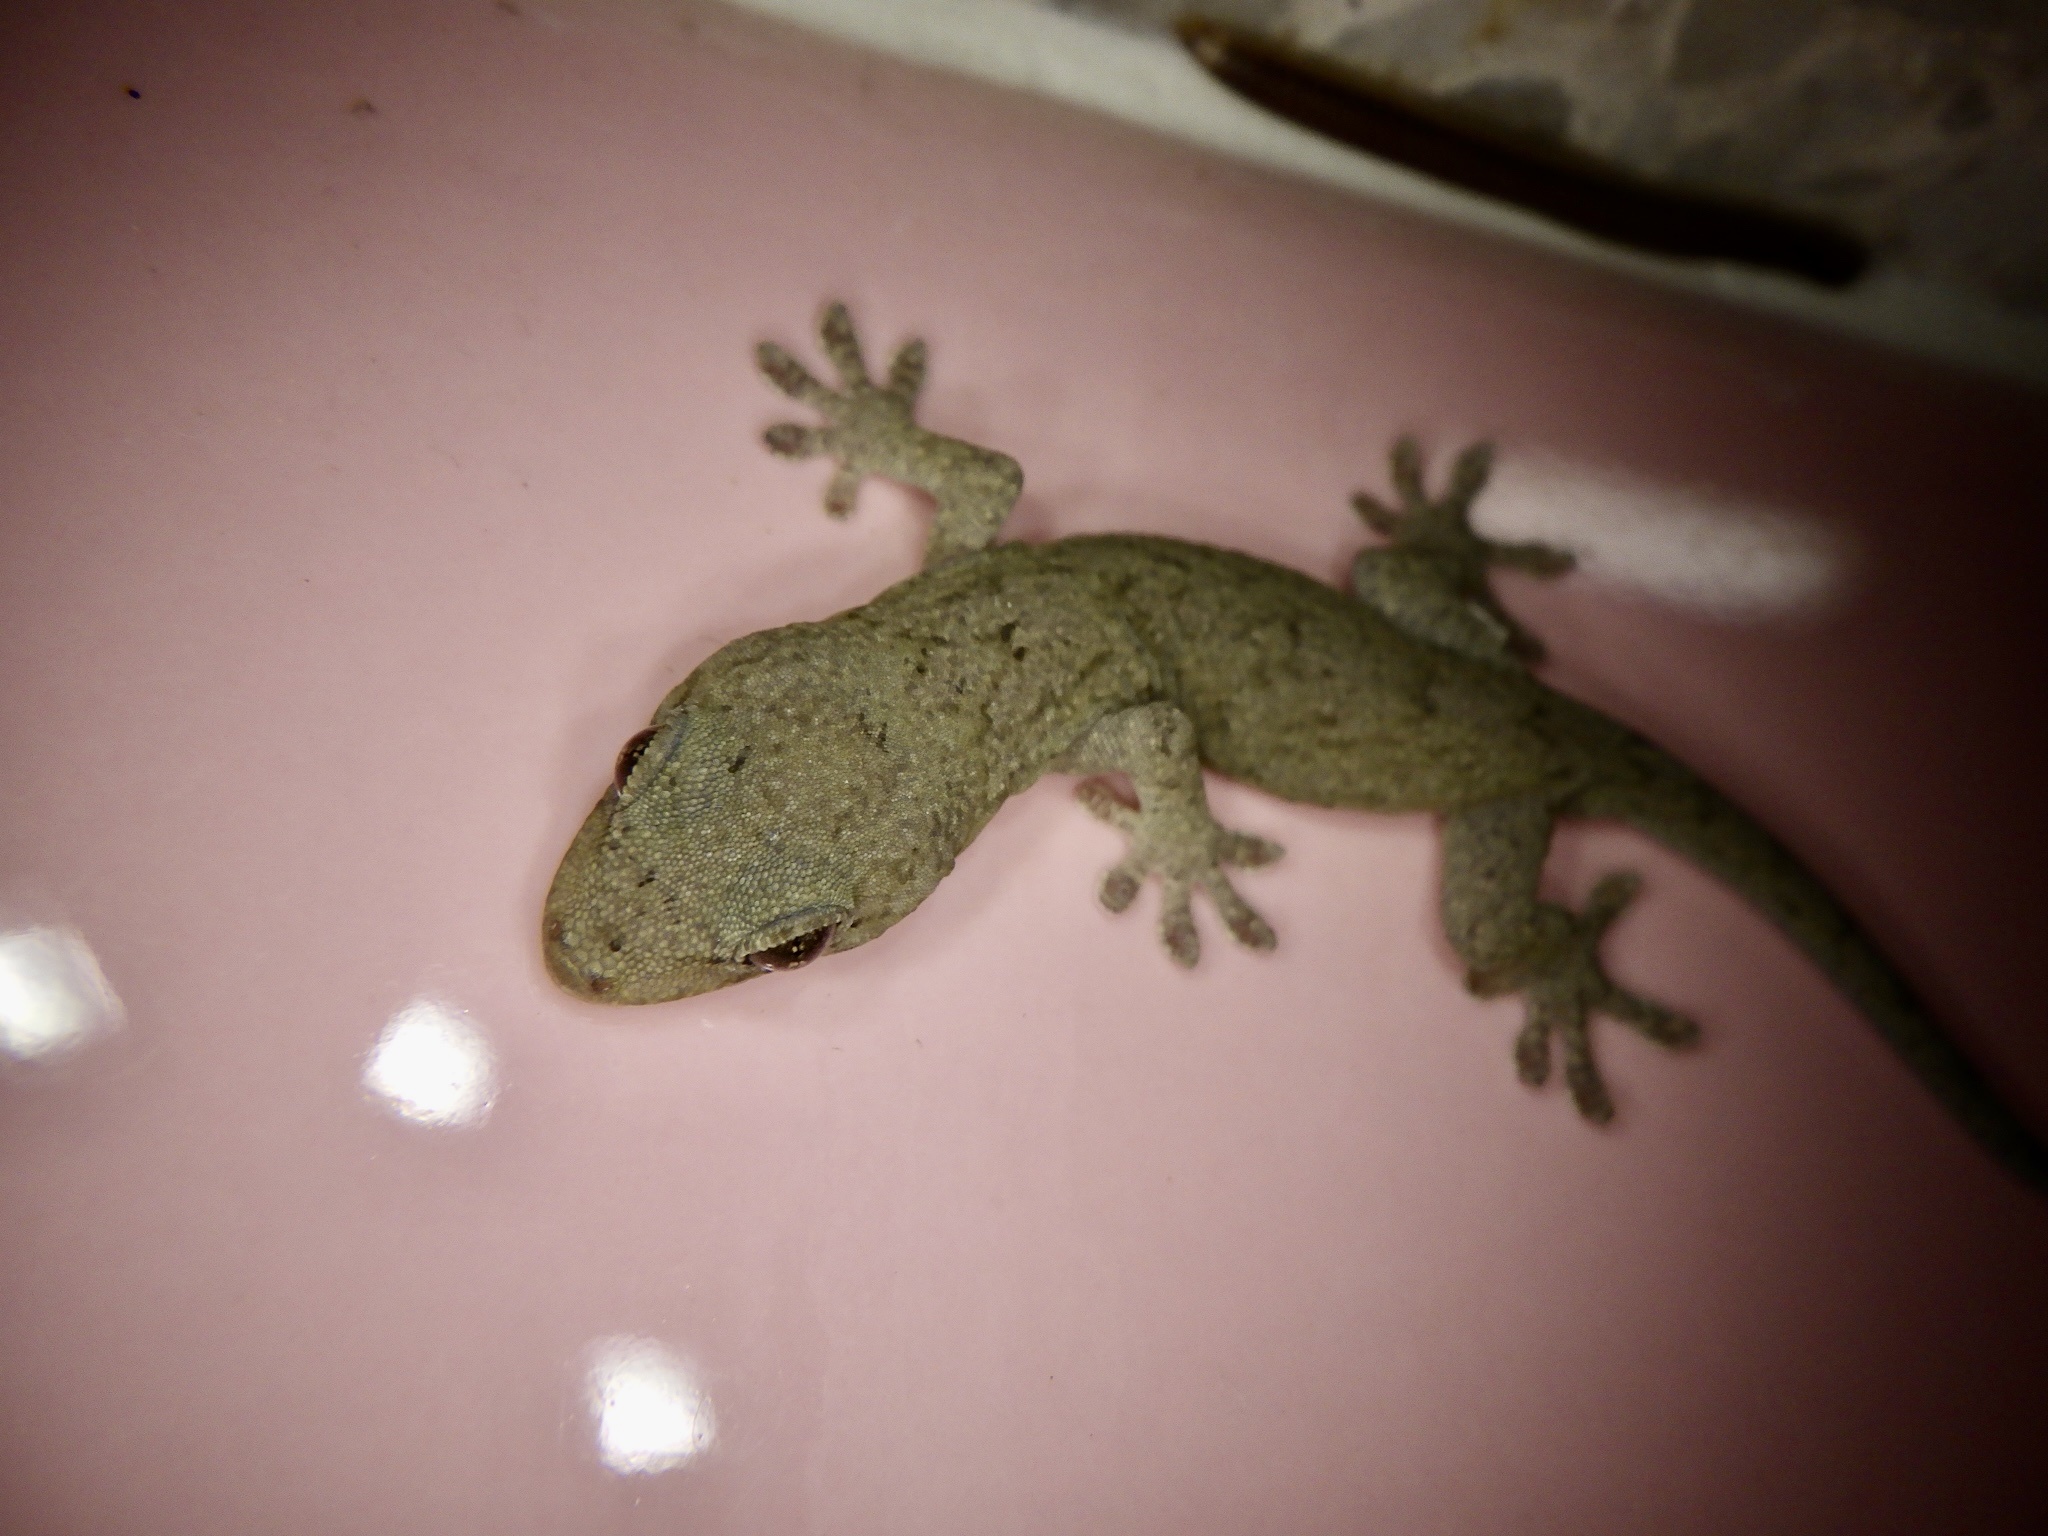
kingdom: Animalia
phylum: Chordata
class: Squamata
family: Gekkonidae
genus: Gekko
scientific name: Gekko japonicus
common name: Schlegel's japanese gecko
